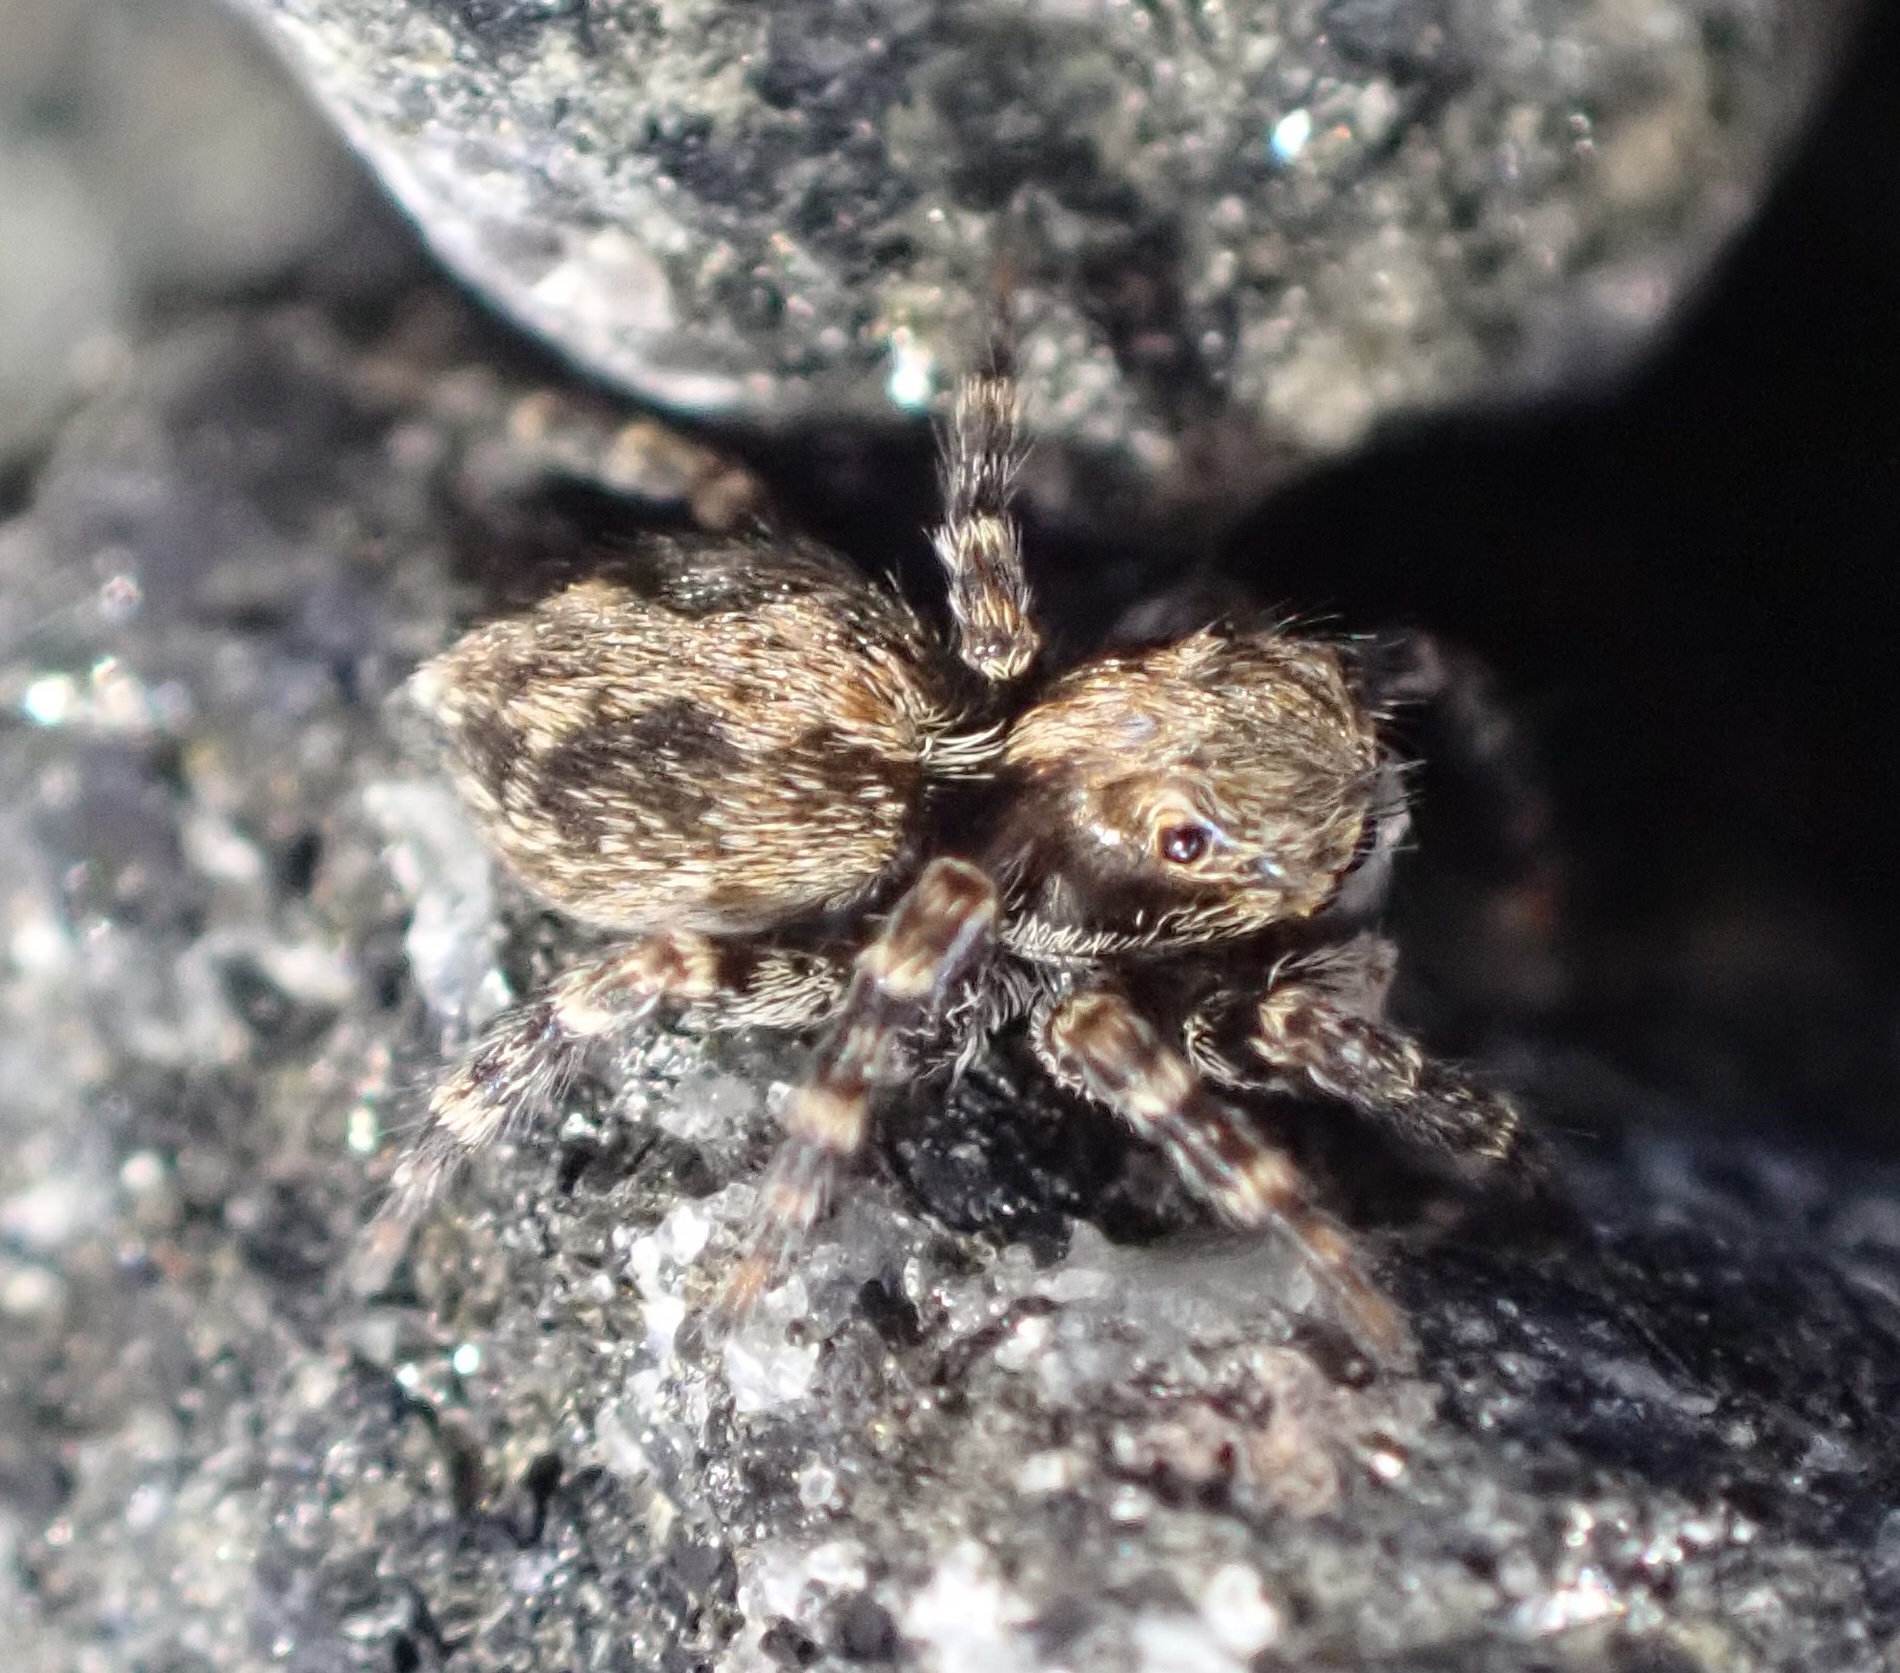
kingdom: Animalia
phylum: Arthropoda
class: Arachnida
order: Araneae
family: Salticidae
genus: Pseudeuophrys
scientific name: Pseudeuophrys lanigera
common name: Jumping spider
